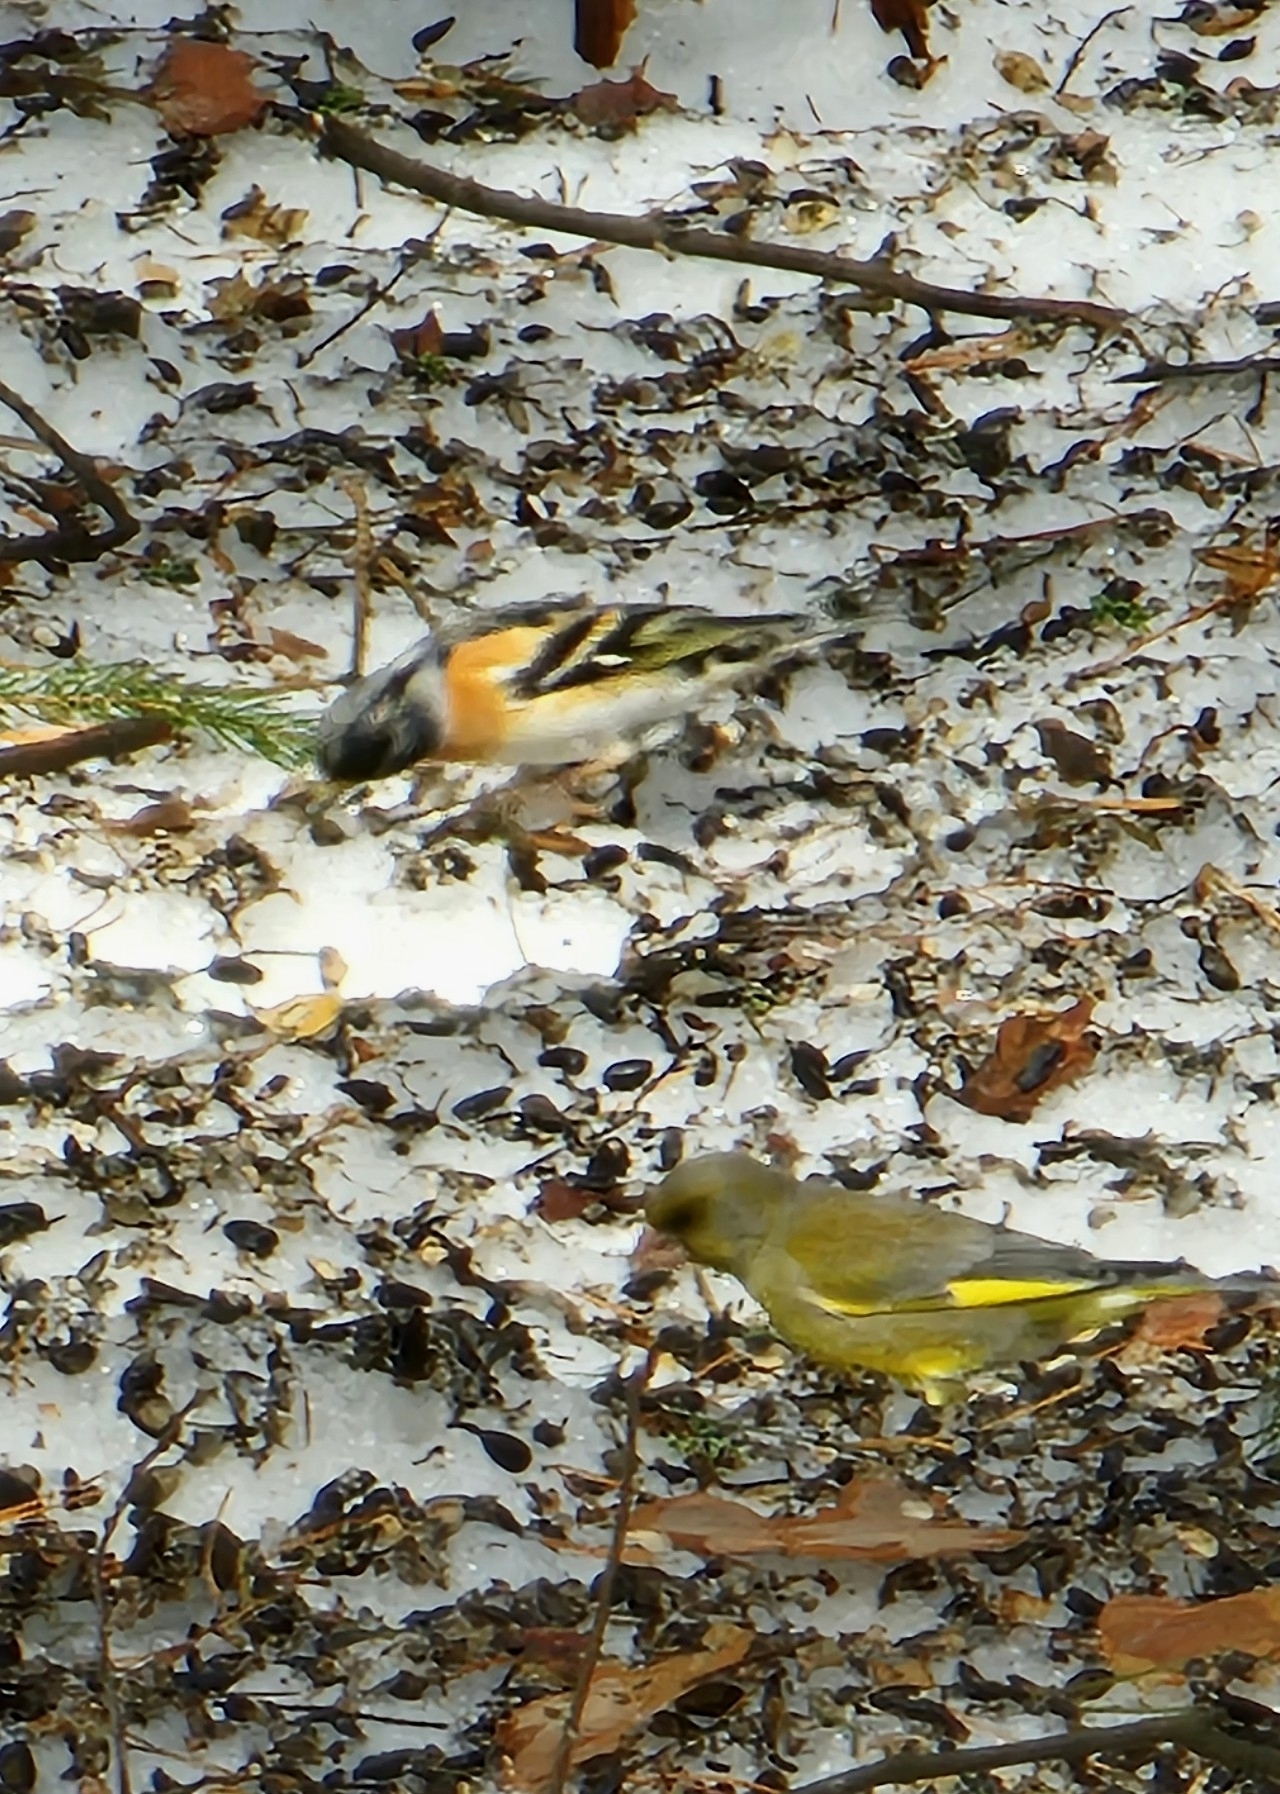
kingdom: Animalia
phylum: Chordata
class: Aves
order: Passeriformes
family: Fringillidae
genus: Fringilla
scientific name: Fringilla montifringilla
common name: Brambling
